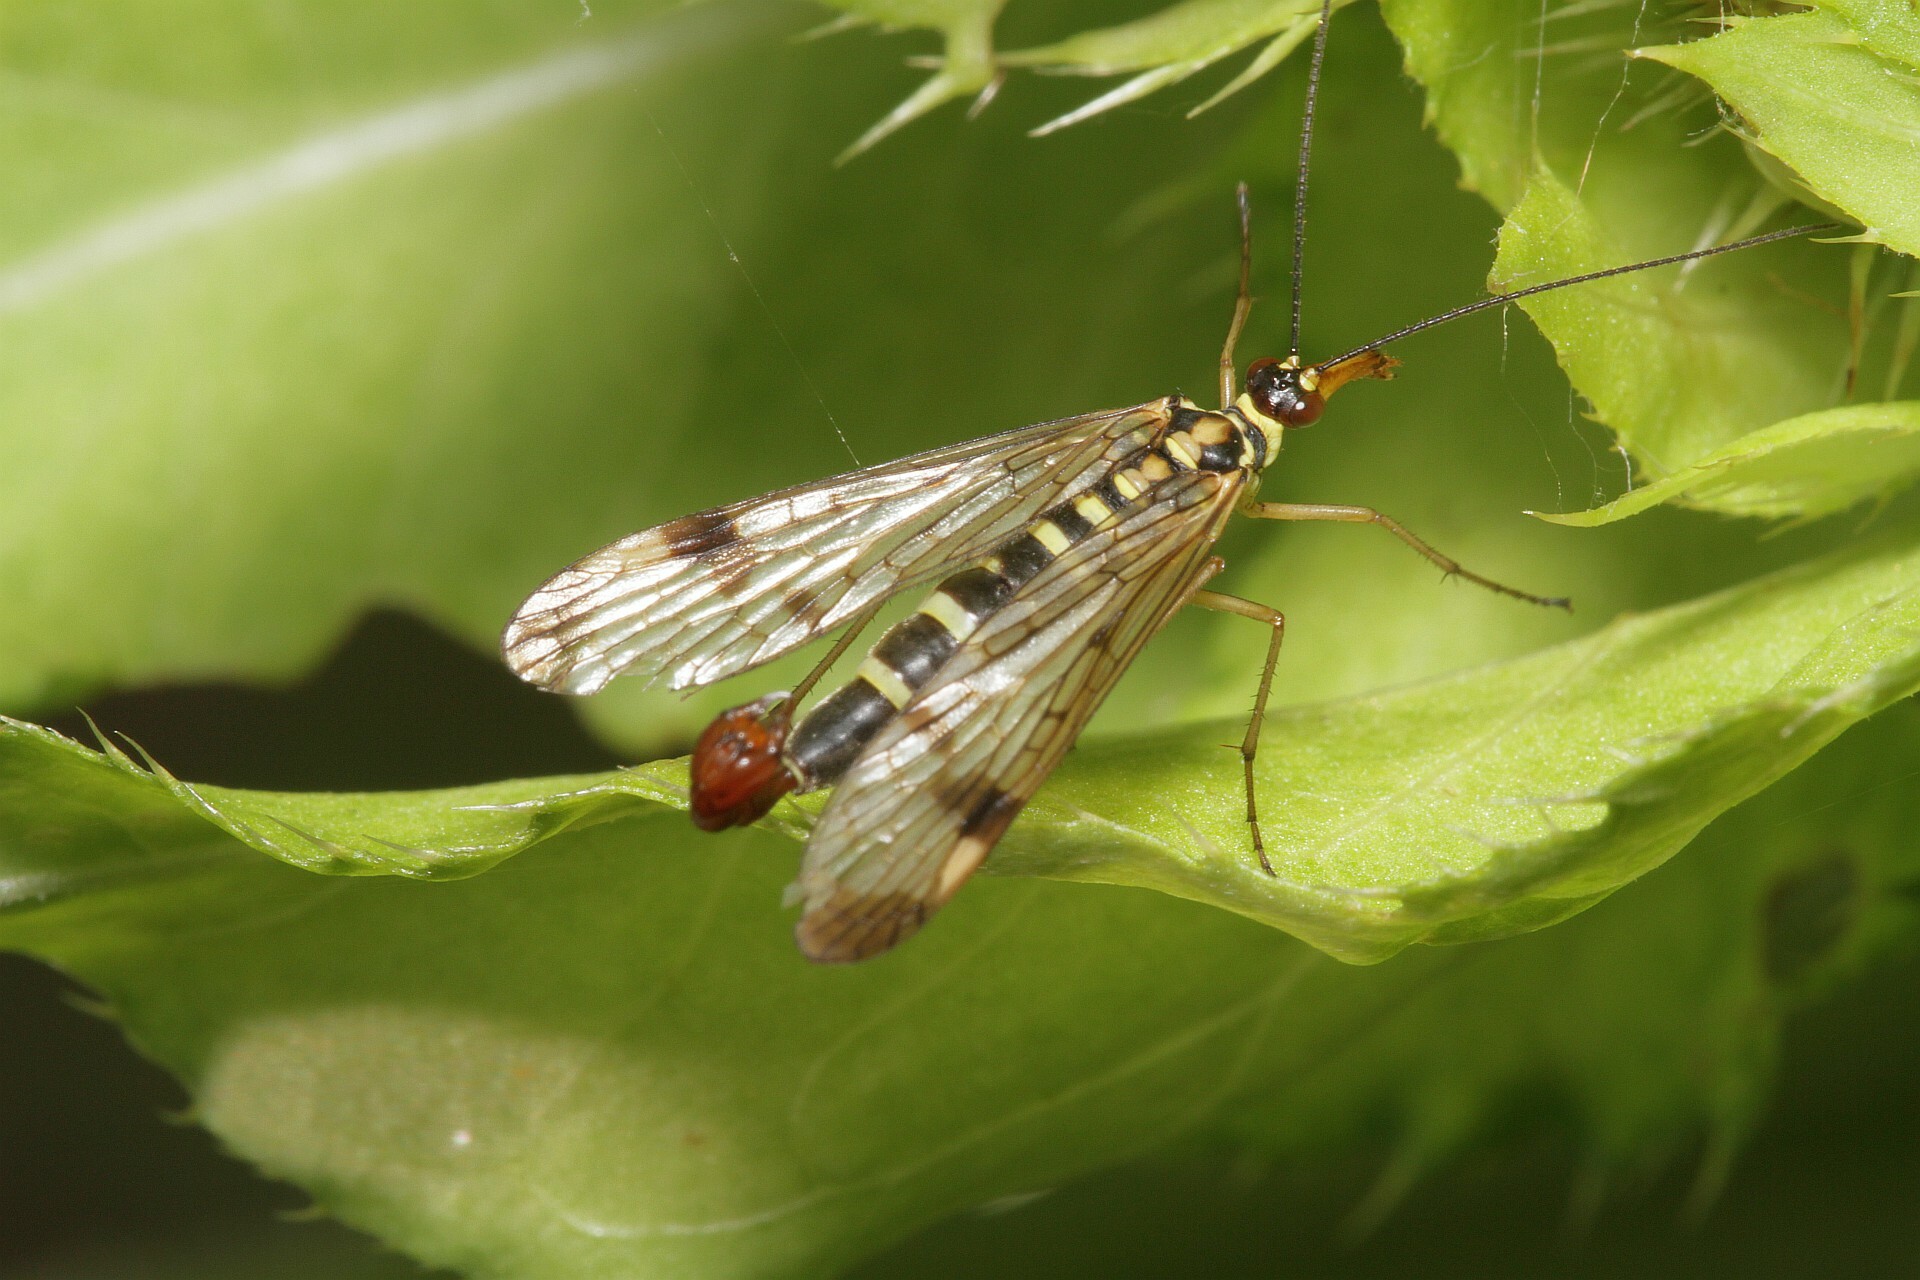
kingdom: Animalia
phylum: Arthropoda
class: Insecta
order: Mecoptera
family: Panorpidae
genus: Panorpa
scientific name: Panorpa communis
